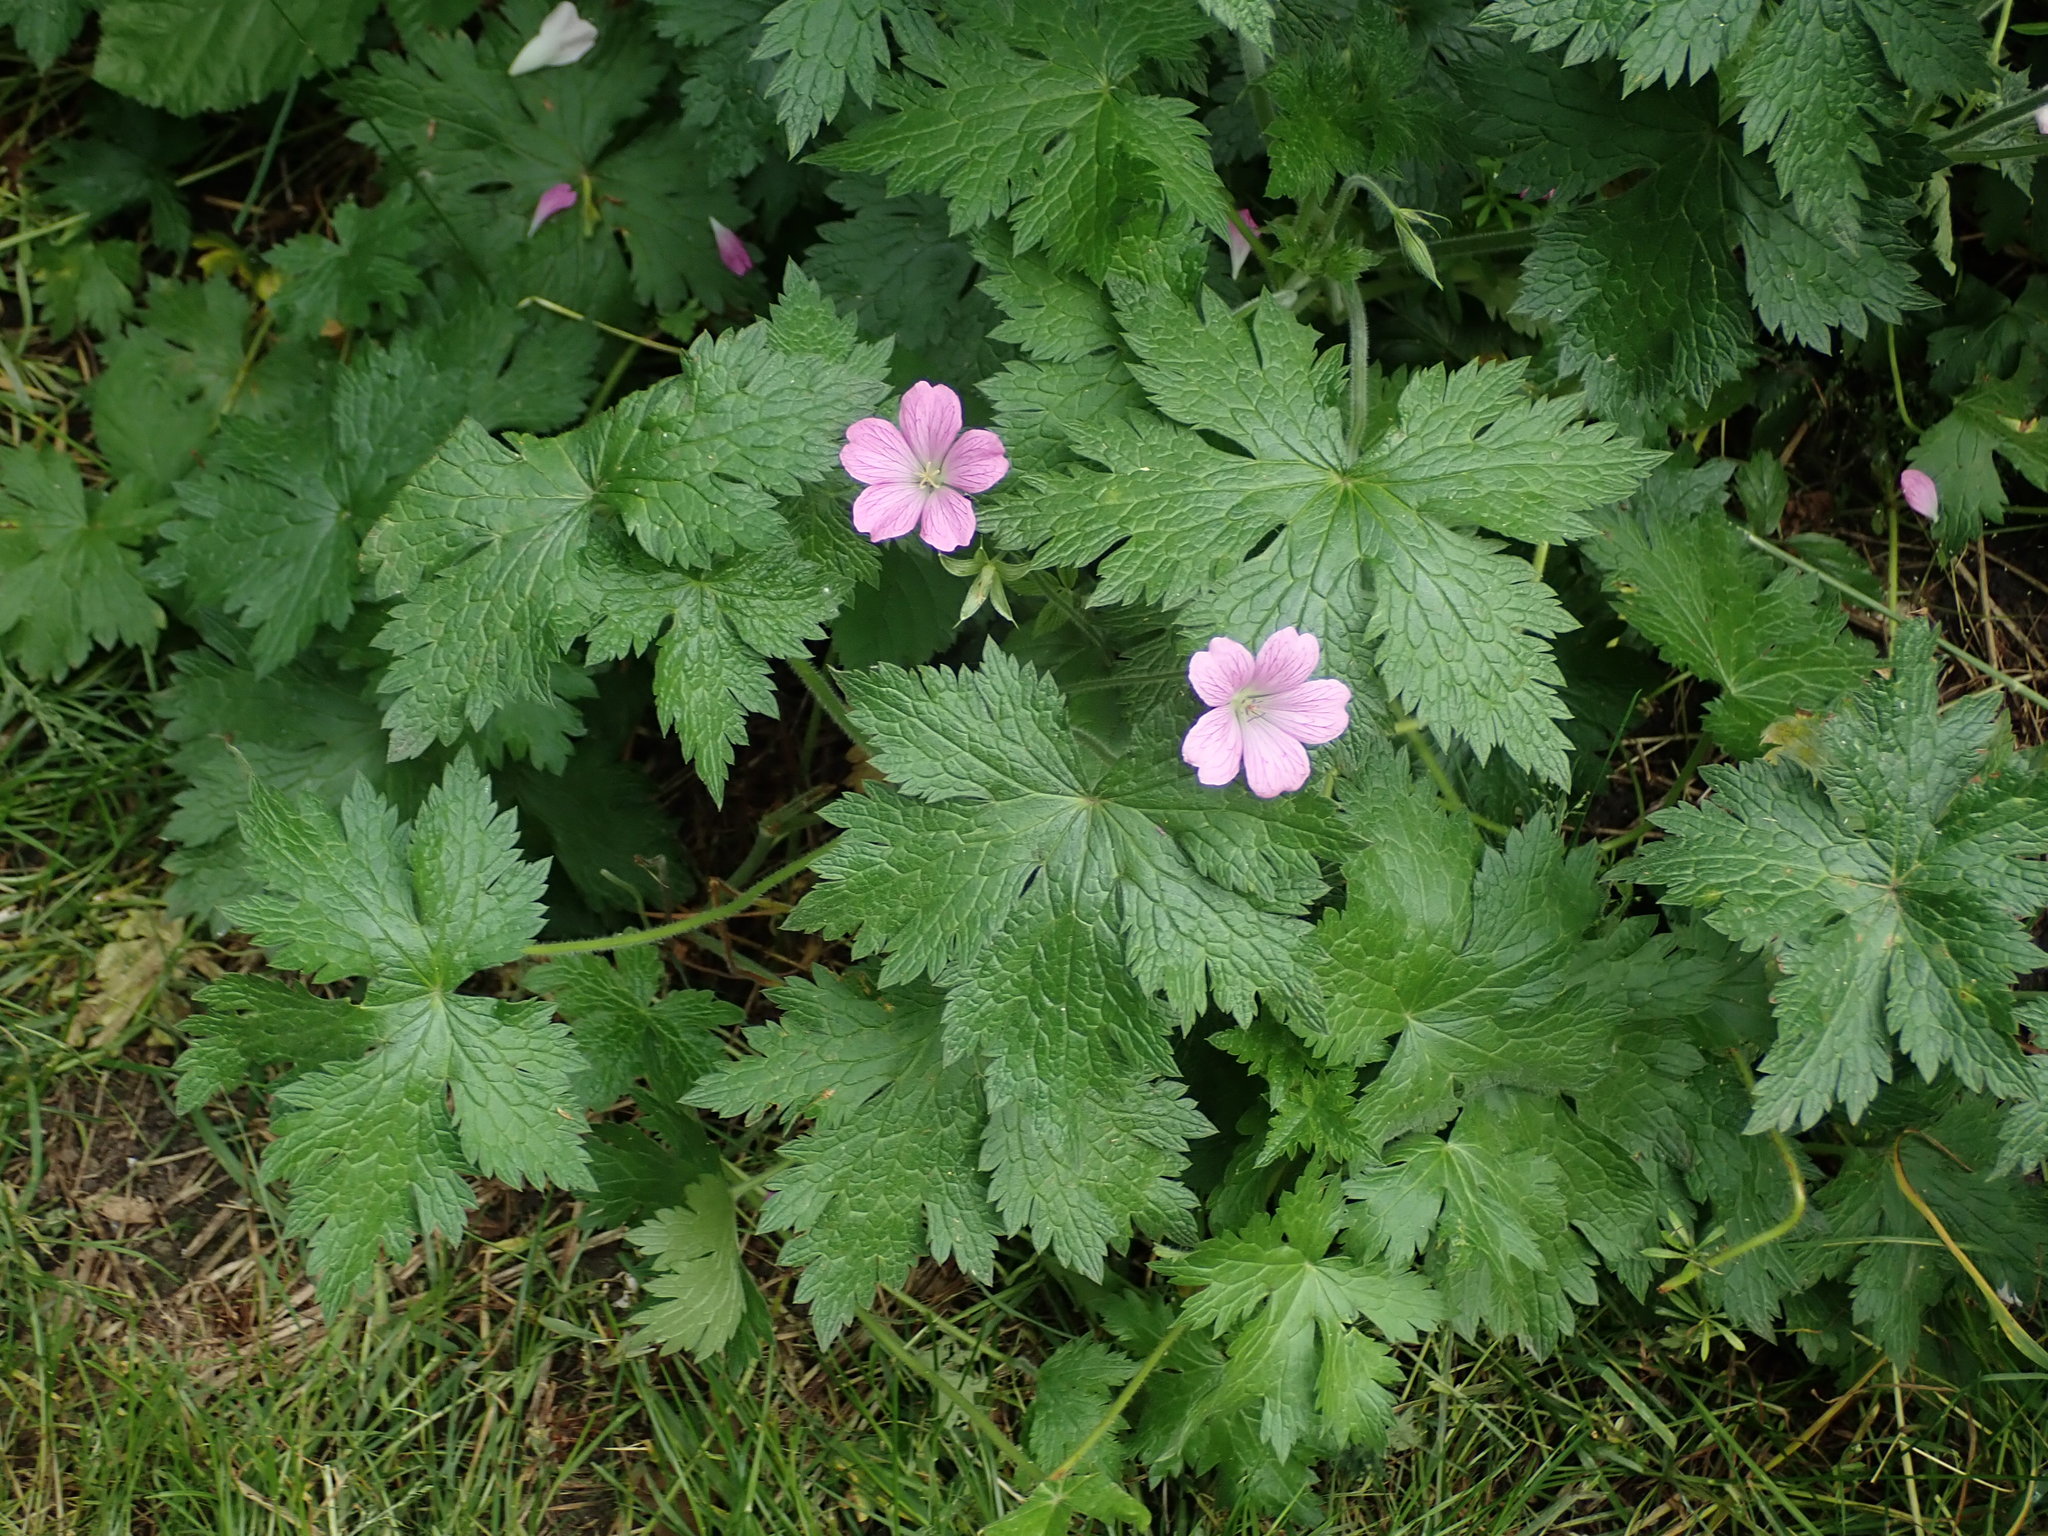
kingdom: Plantae
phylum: Tracheophyta
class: Magnoliopsida
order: Geraniales
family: Geraniaceae
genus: Geranium
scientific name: Geranium oxonianum
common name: Druce's crane's-bill
